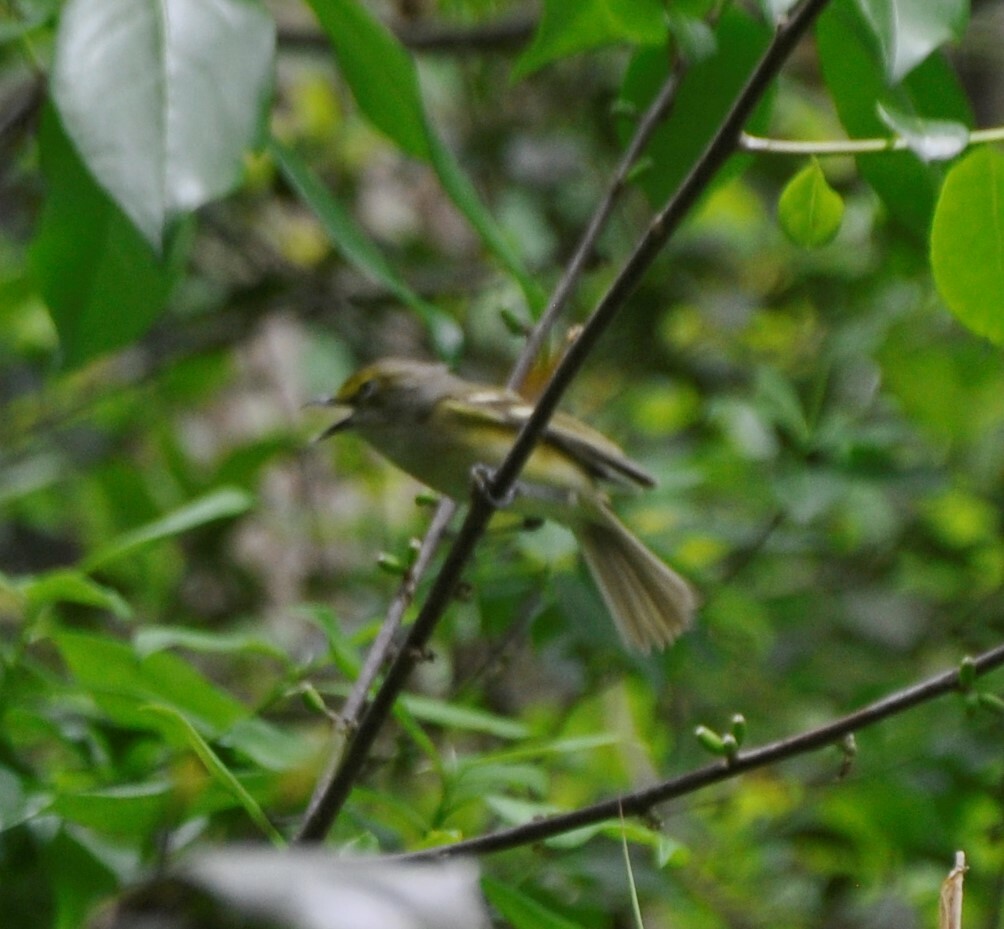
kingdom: Animalia
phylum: Chordata
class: Aves
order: Passeriformes
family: Vireonidae
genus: Vireo
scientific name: Vireo griseus
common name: White-eyed vireo
